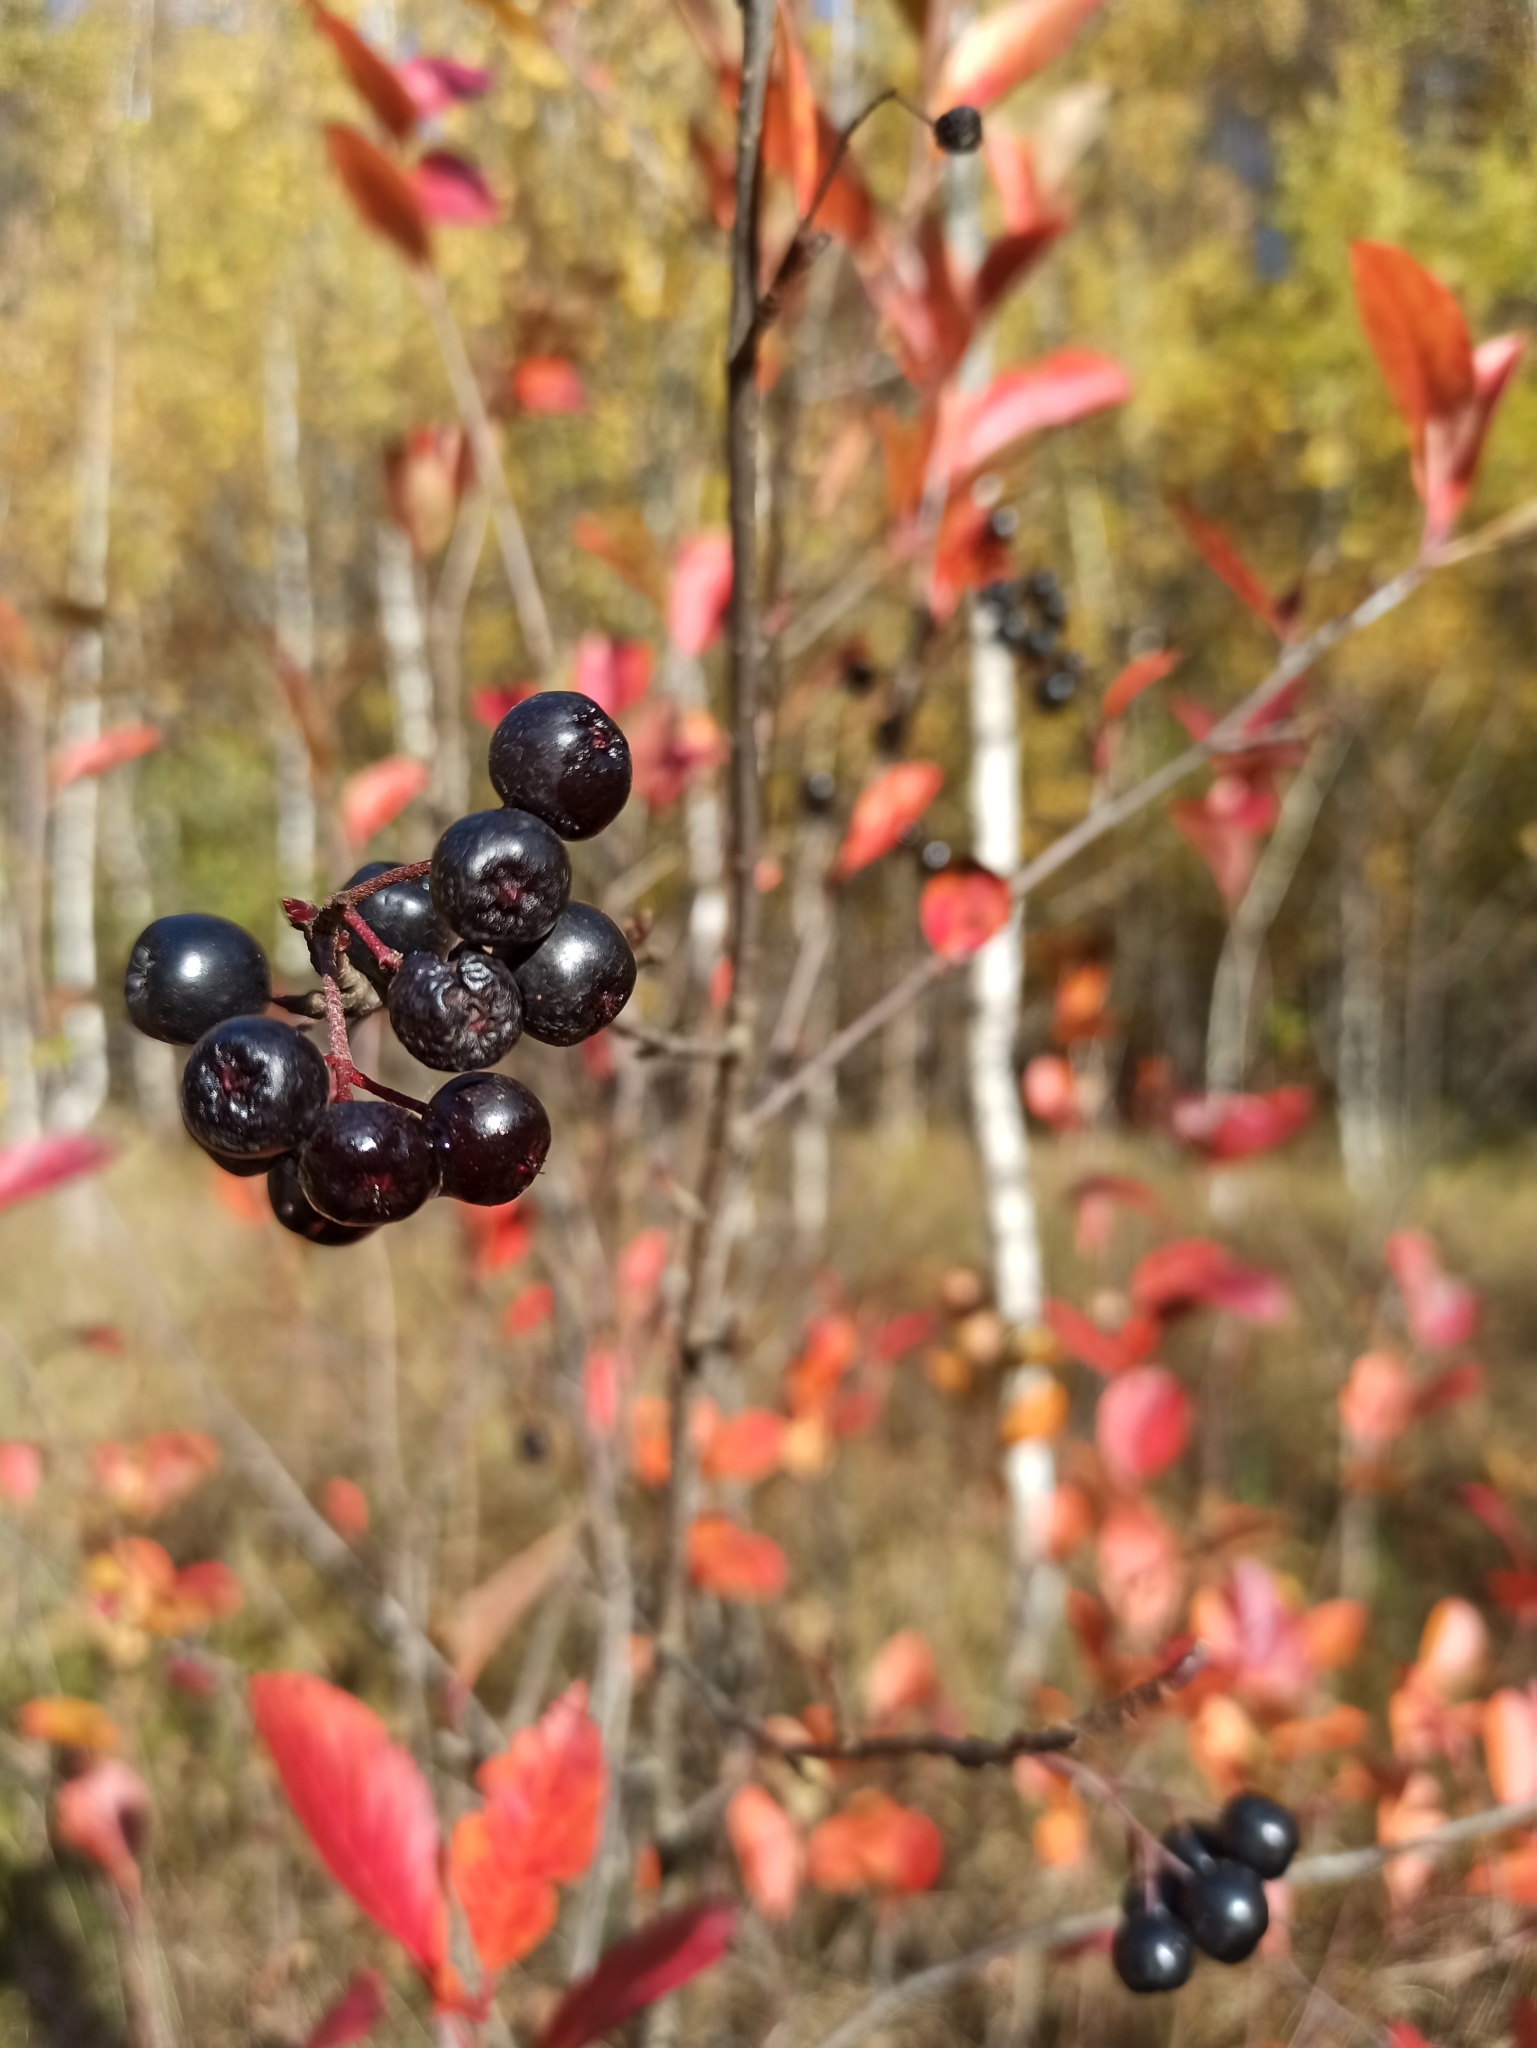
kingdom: Plantae
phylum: Tracheophyta
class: Magnoliopsida
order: Rosales
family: Rosaceae
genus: Sorbaronia
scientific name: Sorbaronia arsenii
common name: Arsène's mountain-ash
